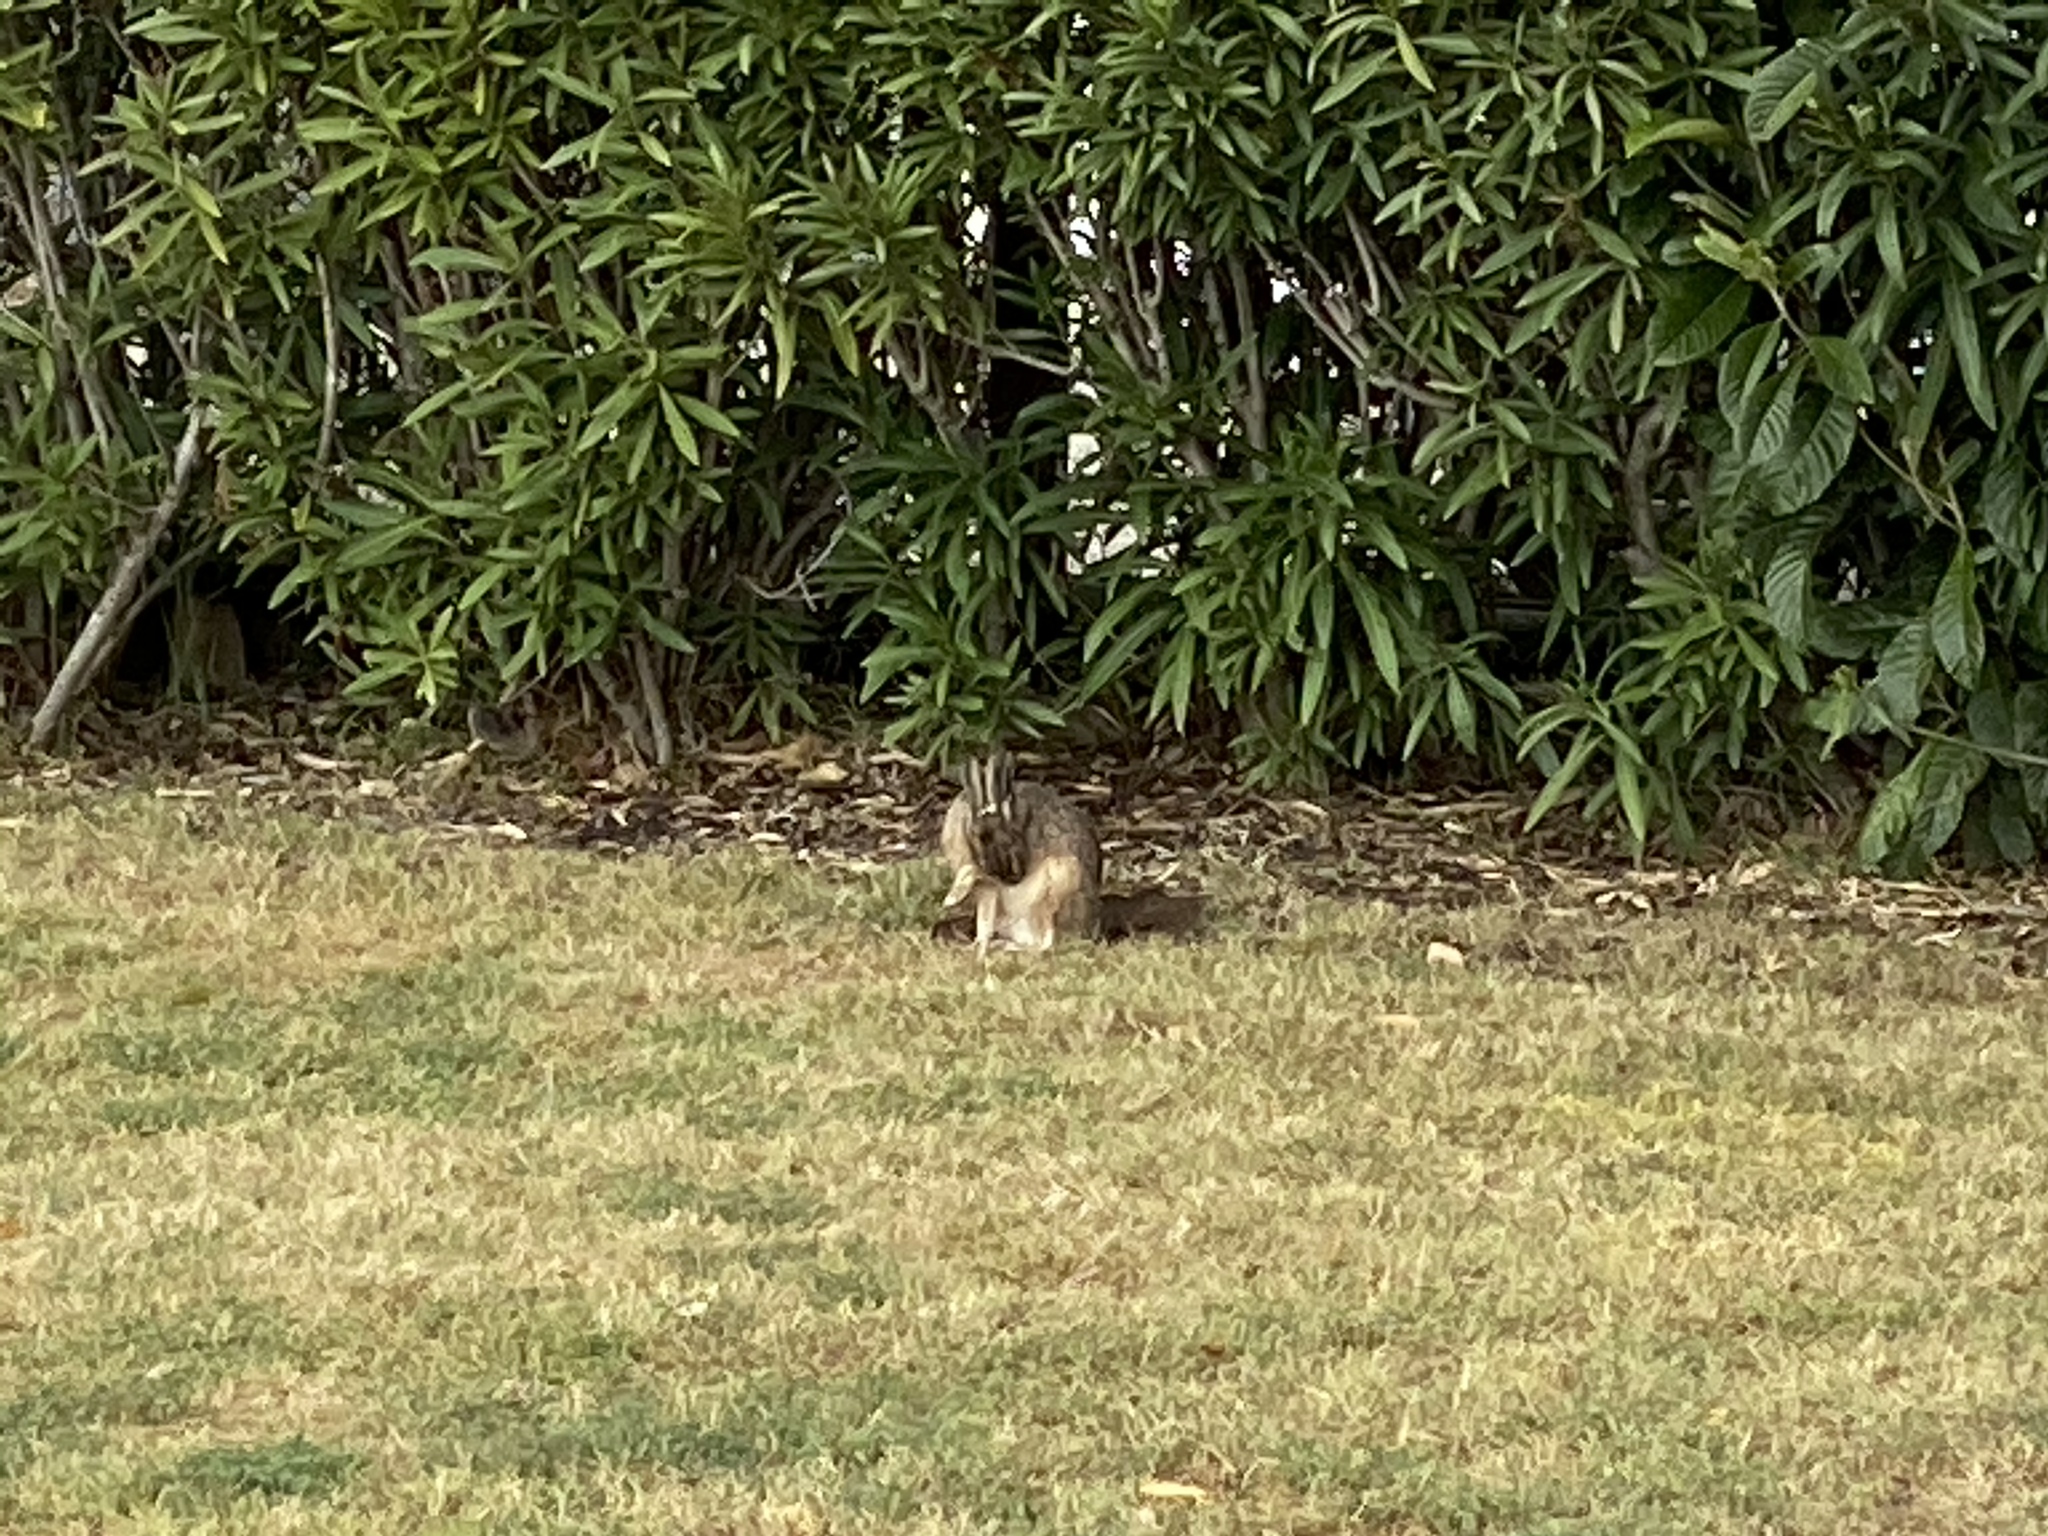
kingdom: Animalia
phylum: Chordata
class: Mammalia
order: Lagomorpha
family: Leporidae
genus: Lepus
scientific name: Lepus californicus
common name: Black-tailed jackrabbit
